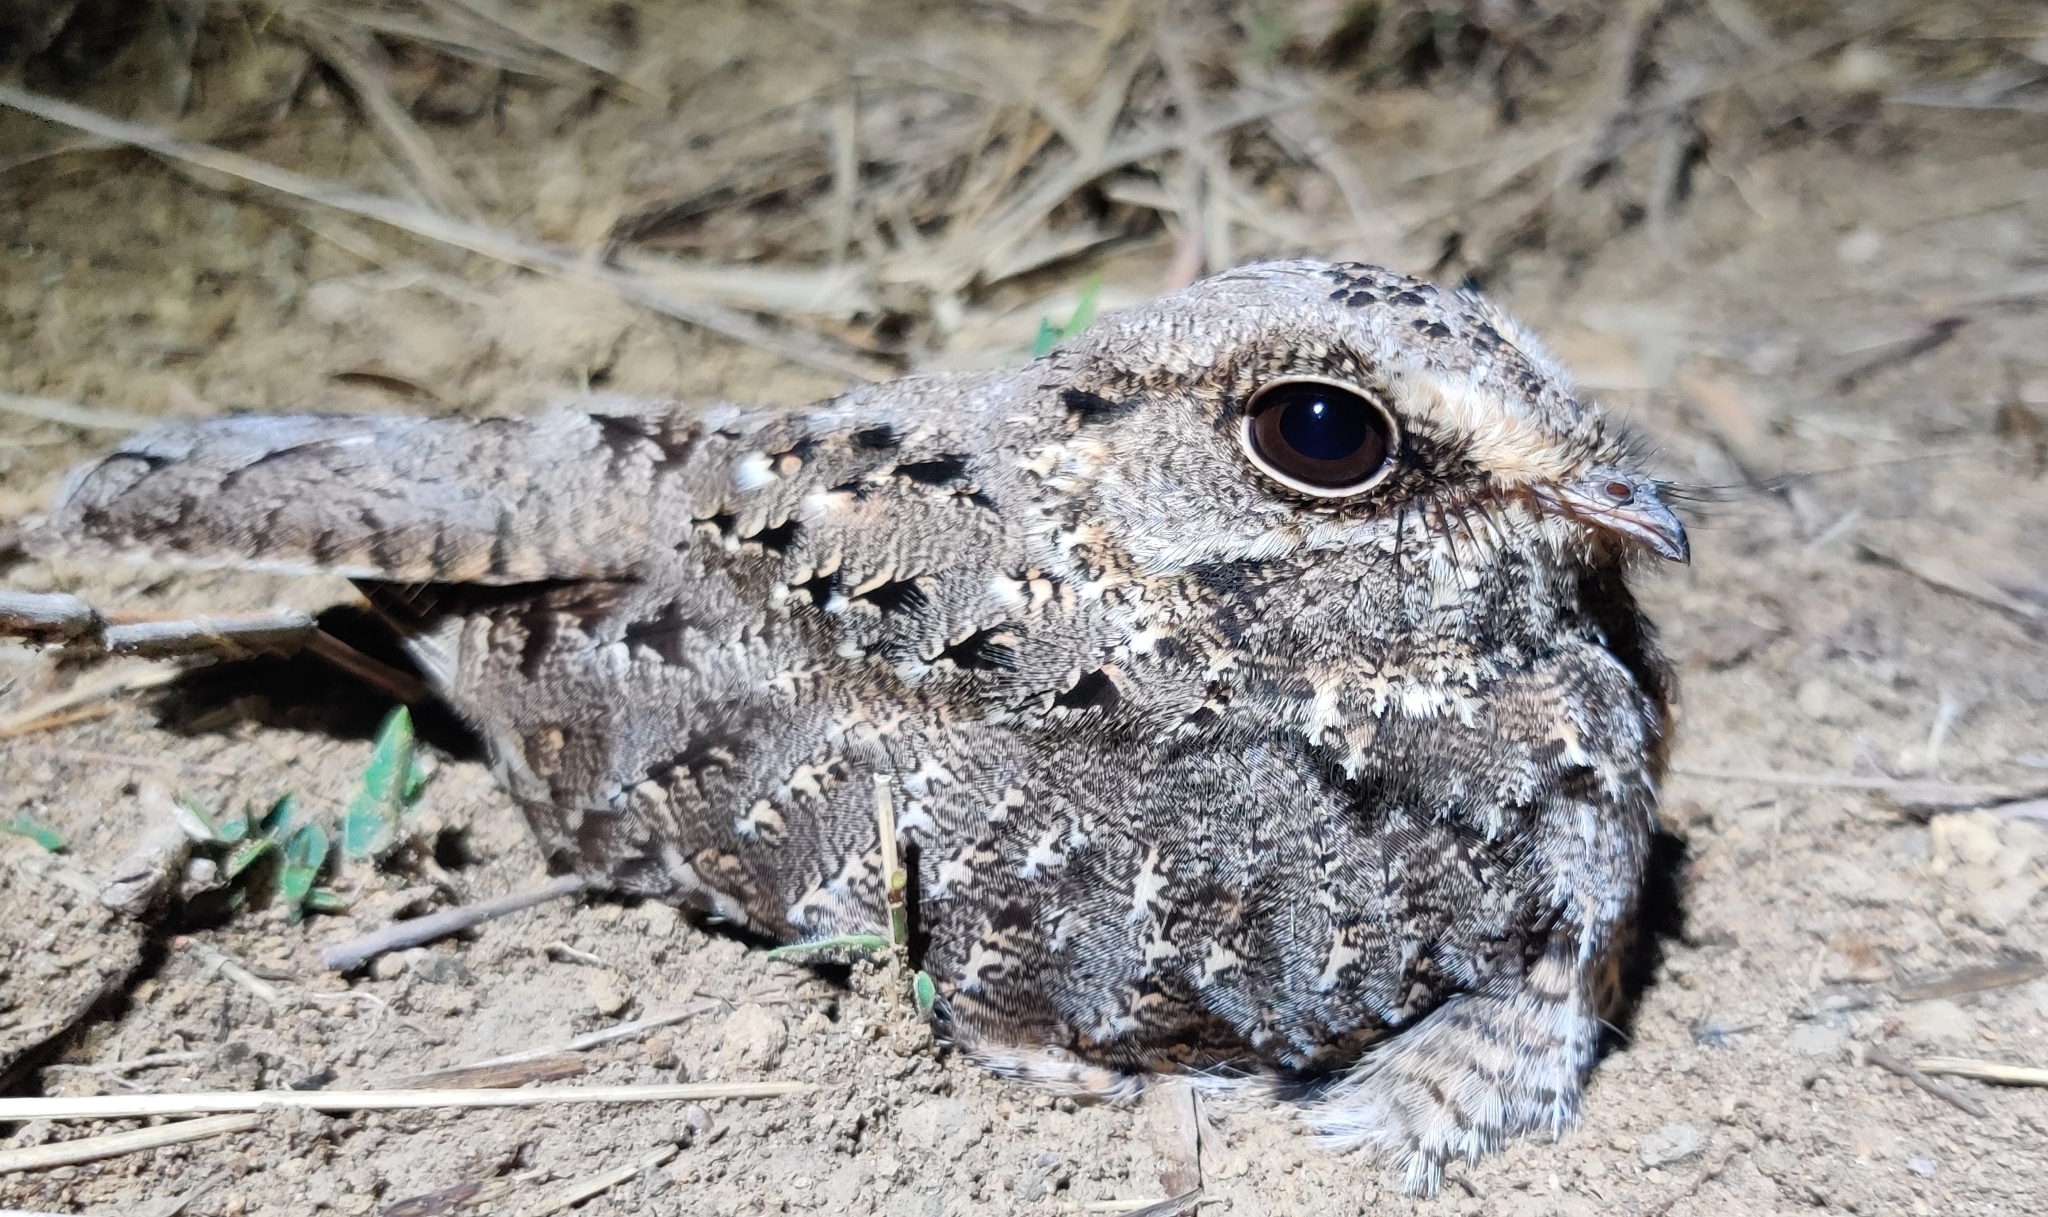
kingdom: Animalia
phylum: Chordata
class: Aves
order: Caprimulgiformes
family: Caprimulgidae
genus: Eleothreptus
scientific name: Eleothreptus anomalus
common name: Sickle-winged nightjar
